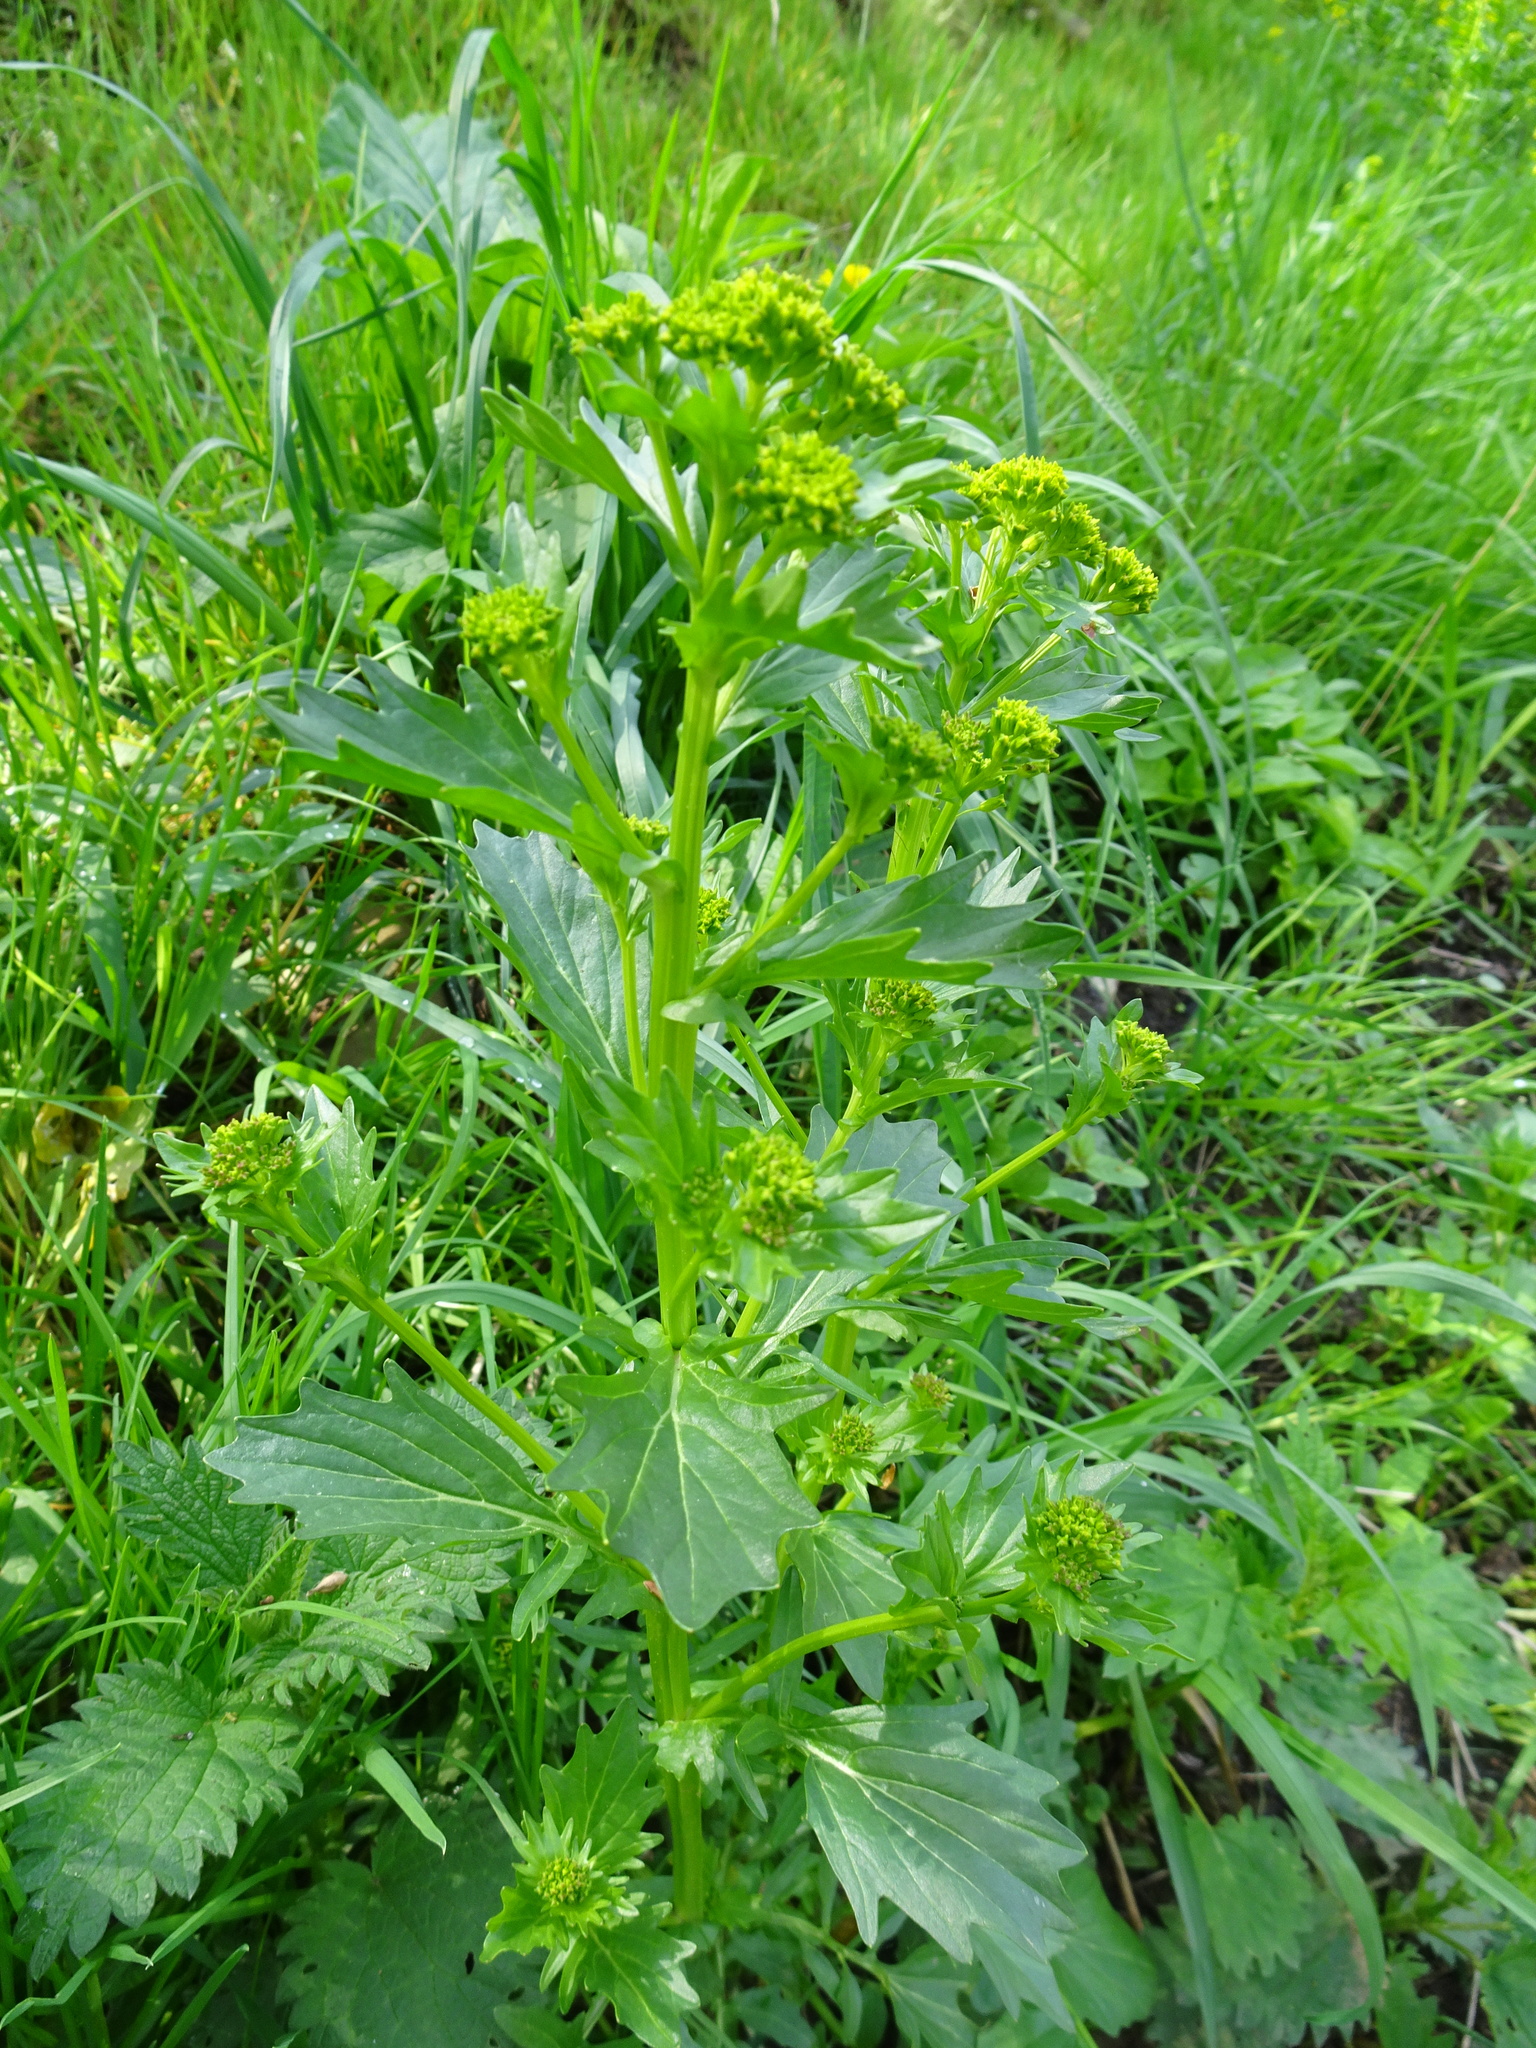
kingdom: Plantae
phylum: Tracheophyta
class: Magnoliopsida
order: Brassicales
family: Brassicaceae
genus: Barbarea
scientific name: Barbarea vulgaris
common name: Cressy-greens
